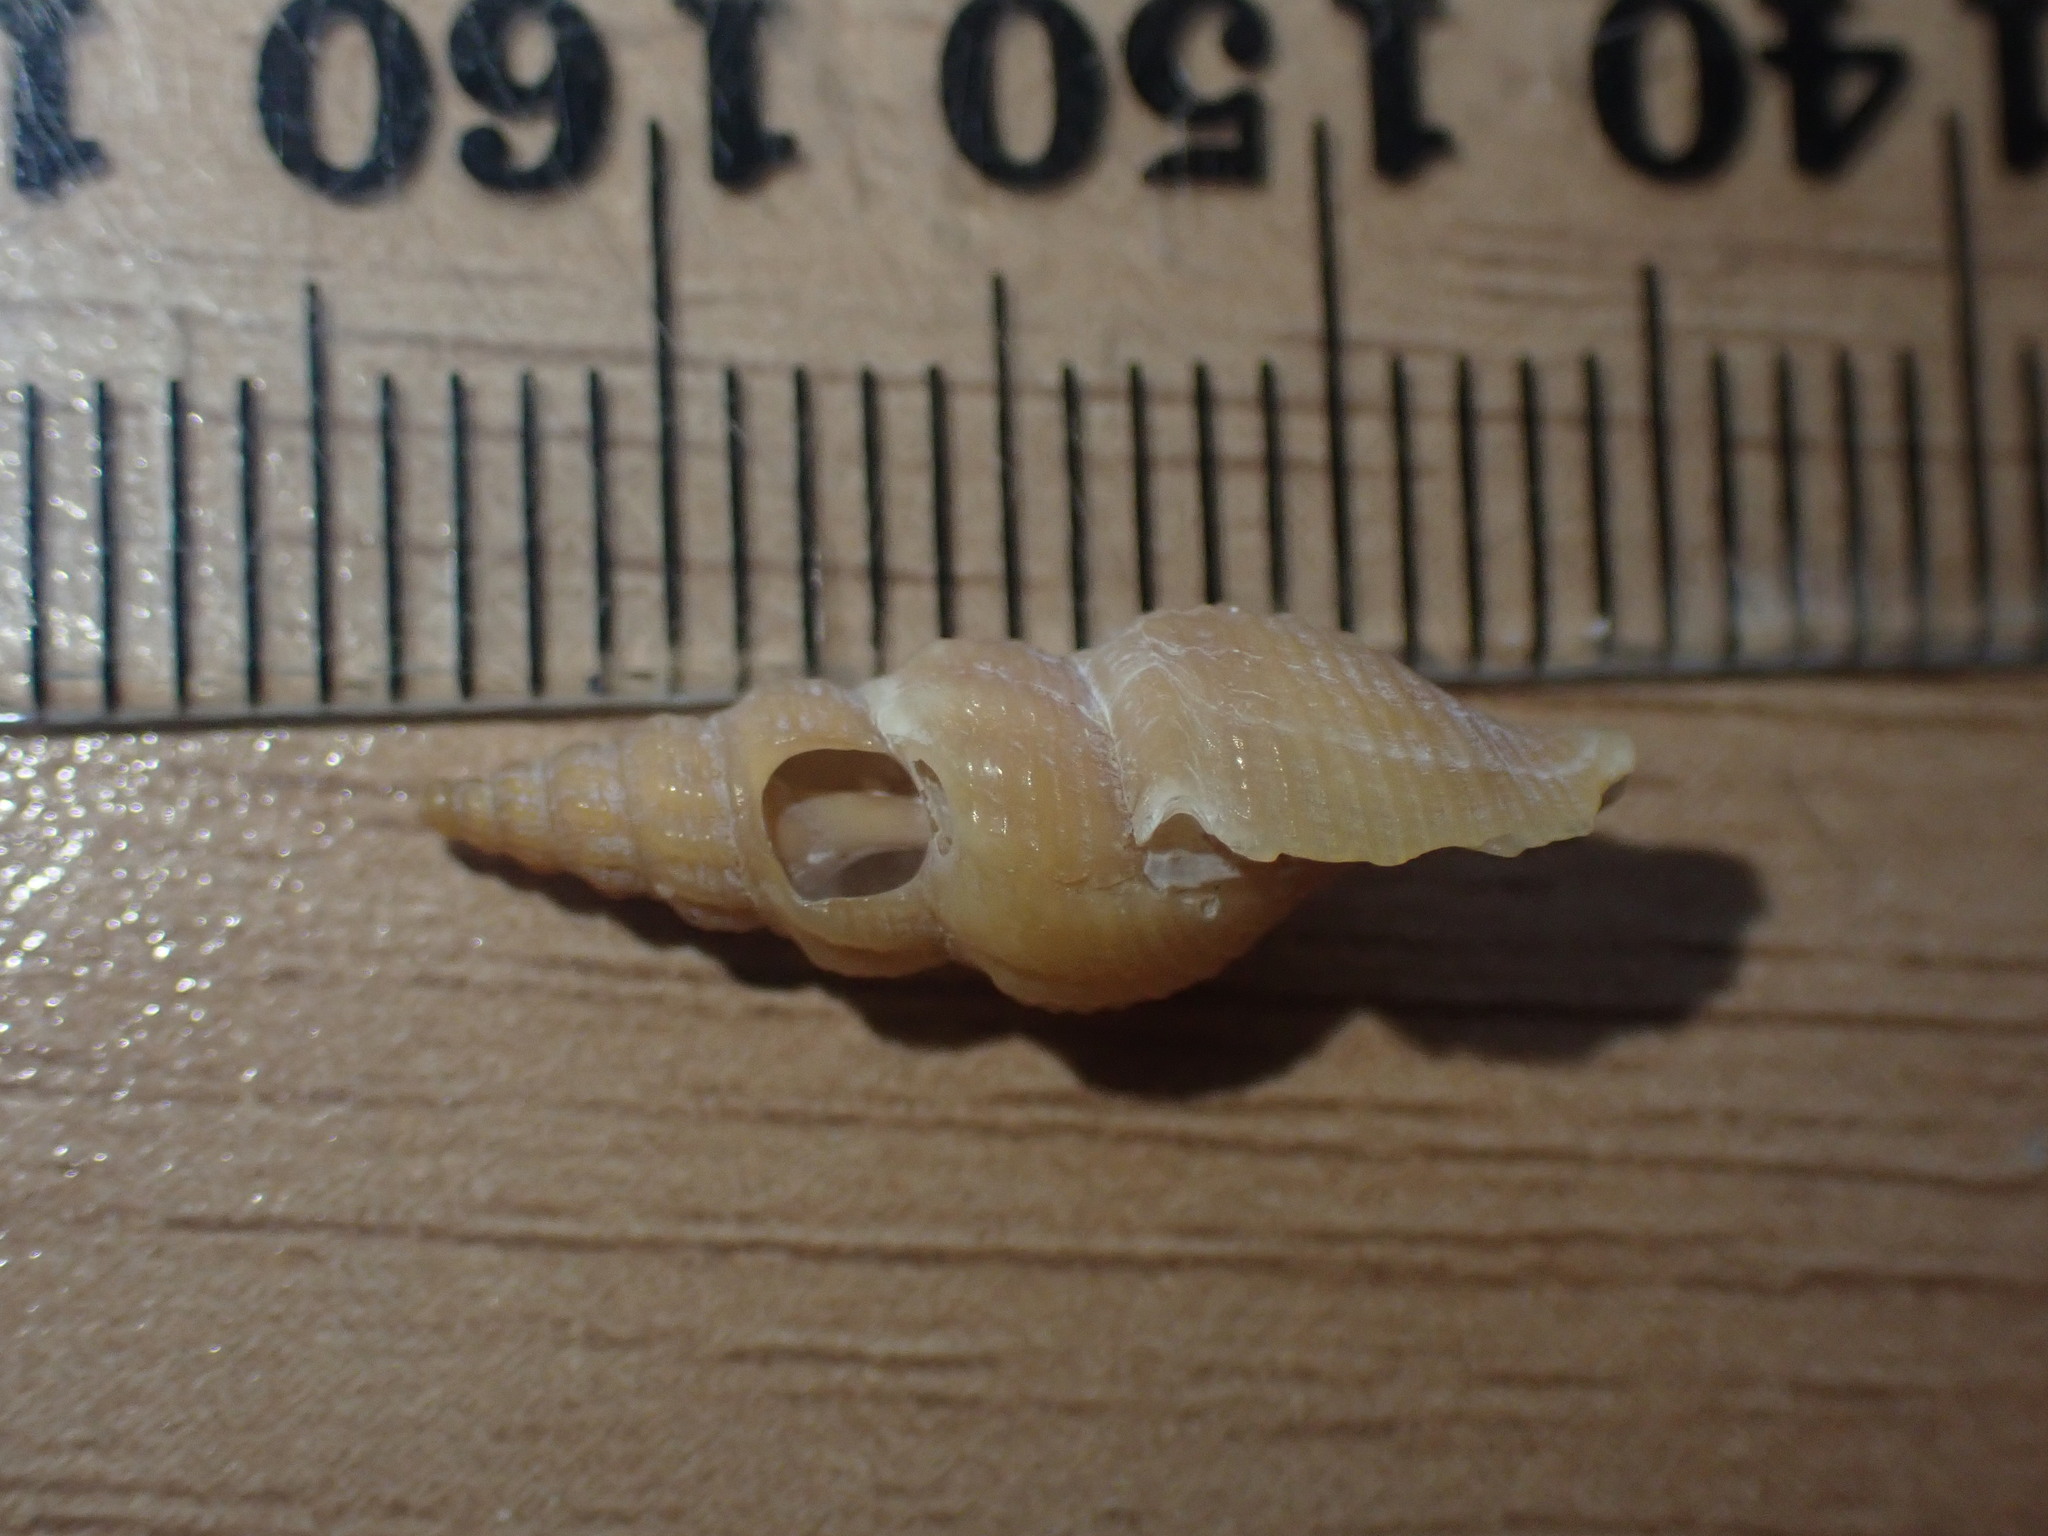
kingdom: Animalia
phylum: Mollusca
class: Gastropoda
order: Neogastropoda
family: Pseudomelatomidae
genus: Antimelatoma
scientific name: Antimelatoma buchanani
